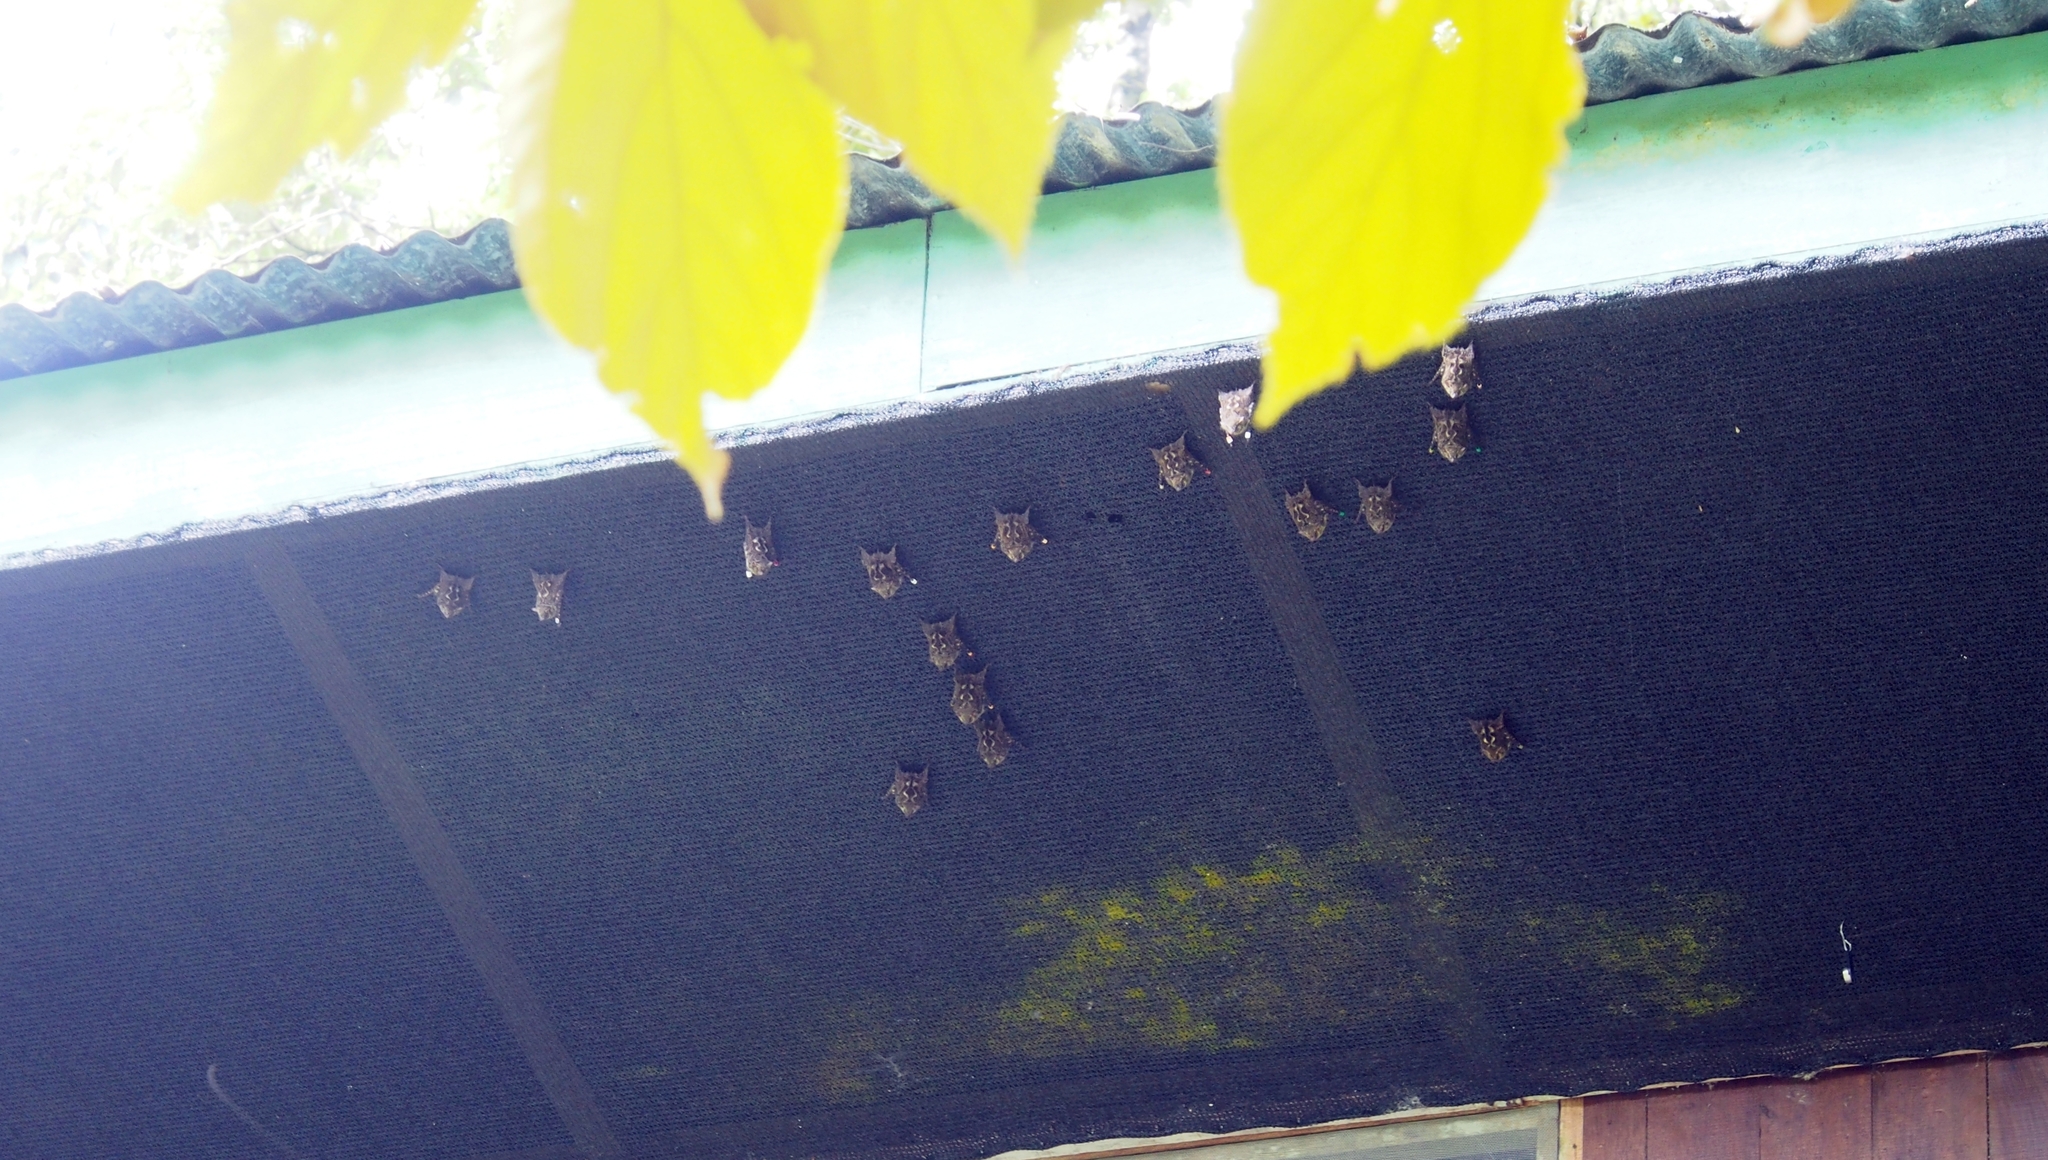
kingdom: Animalia
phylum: Chordata
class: Mammalia
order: Chiroptera
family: Emballonuridae
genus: Rhynchonycteris
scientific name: Rhynchonycteris naso
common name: Proboscis bat
